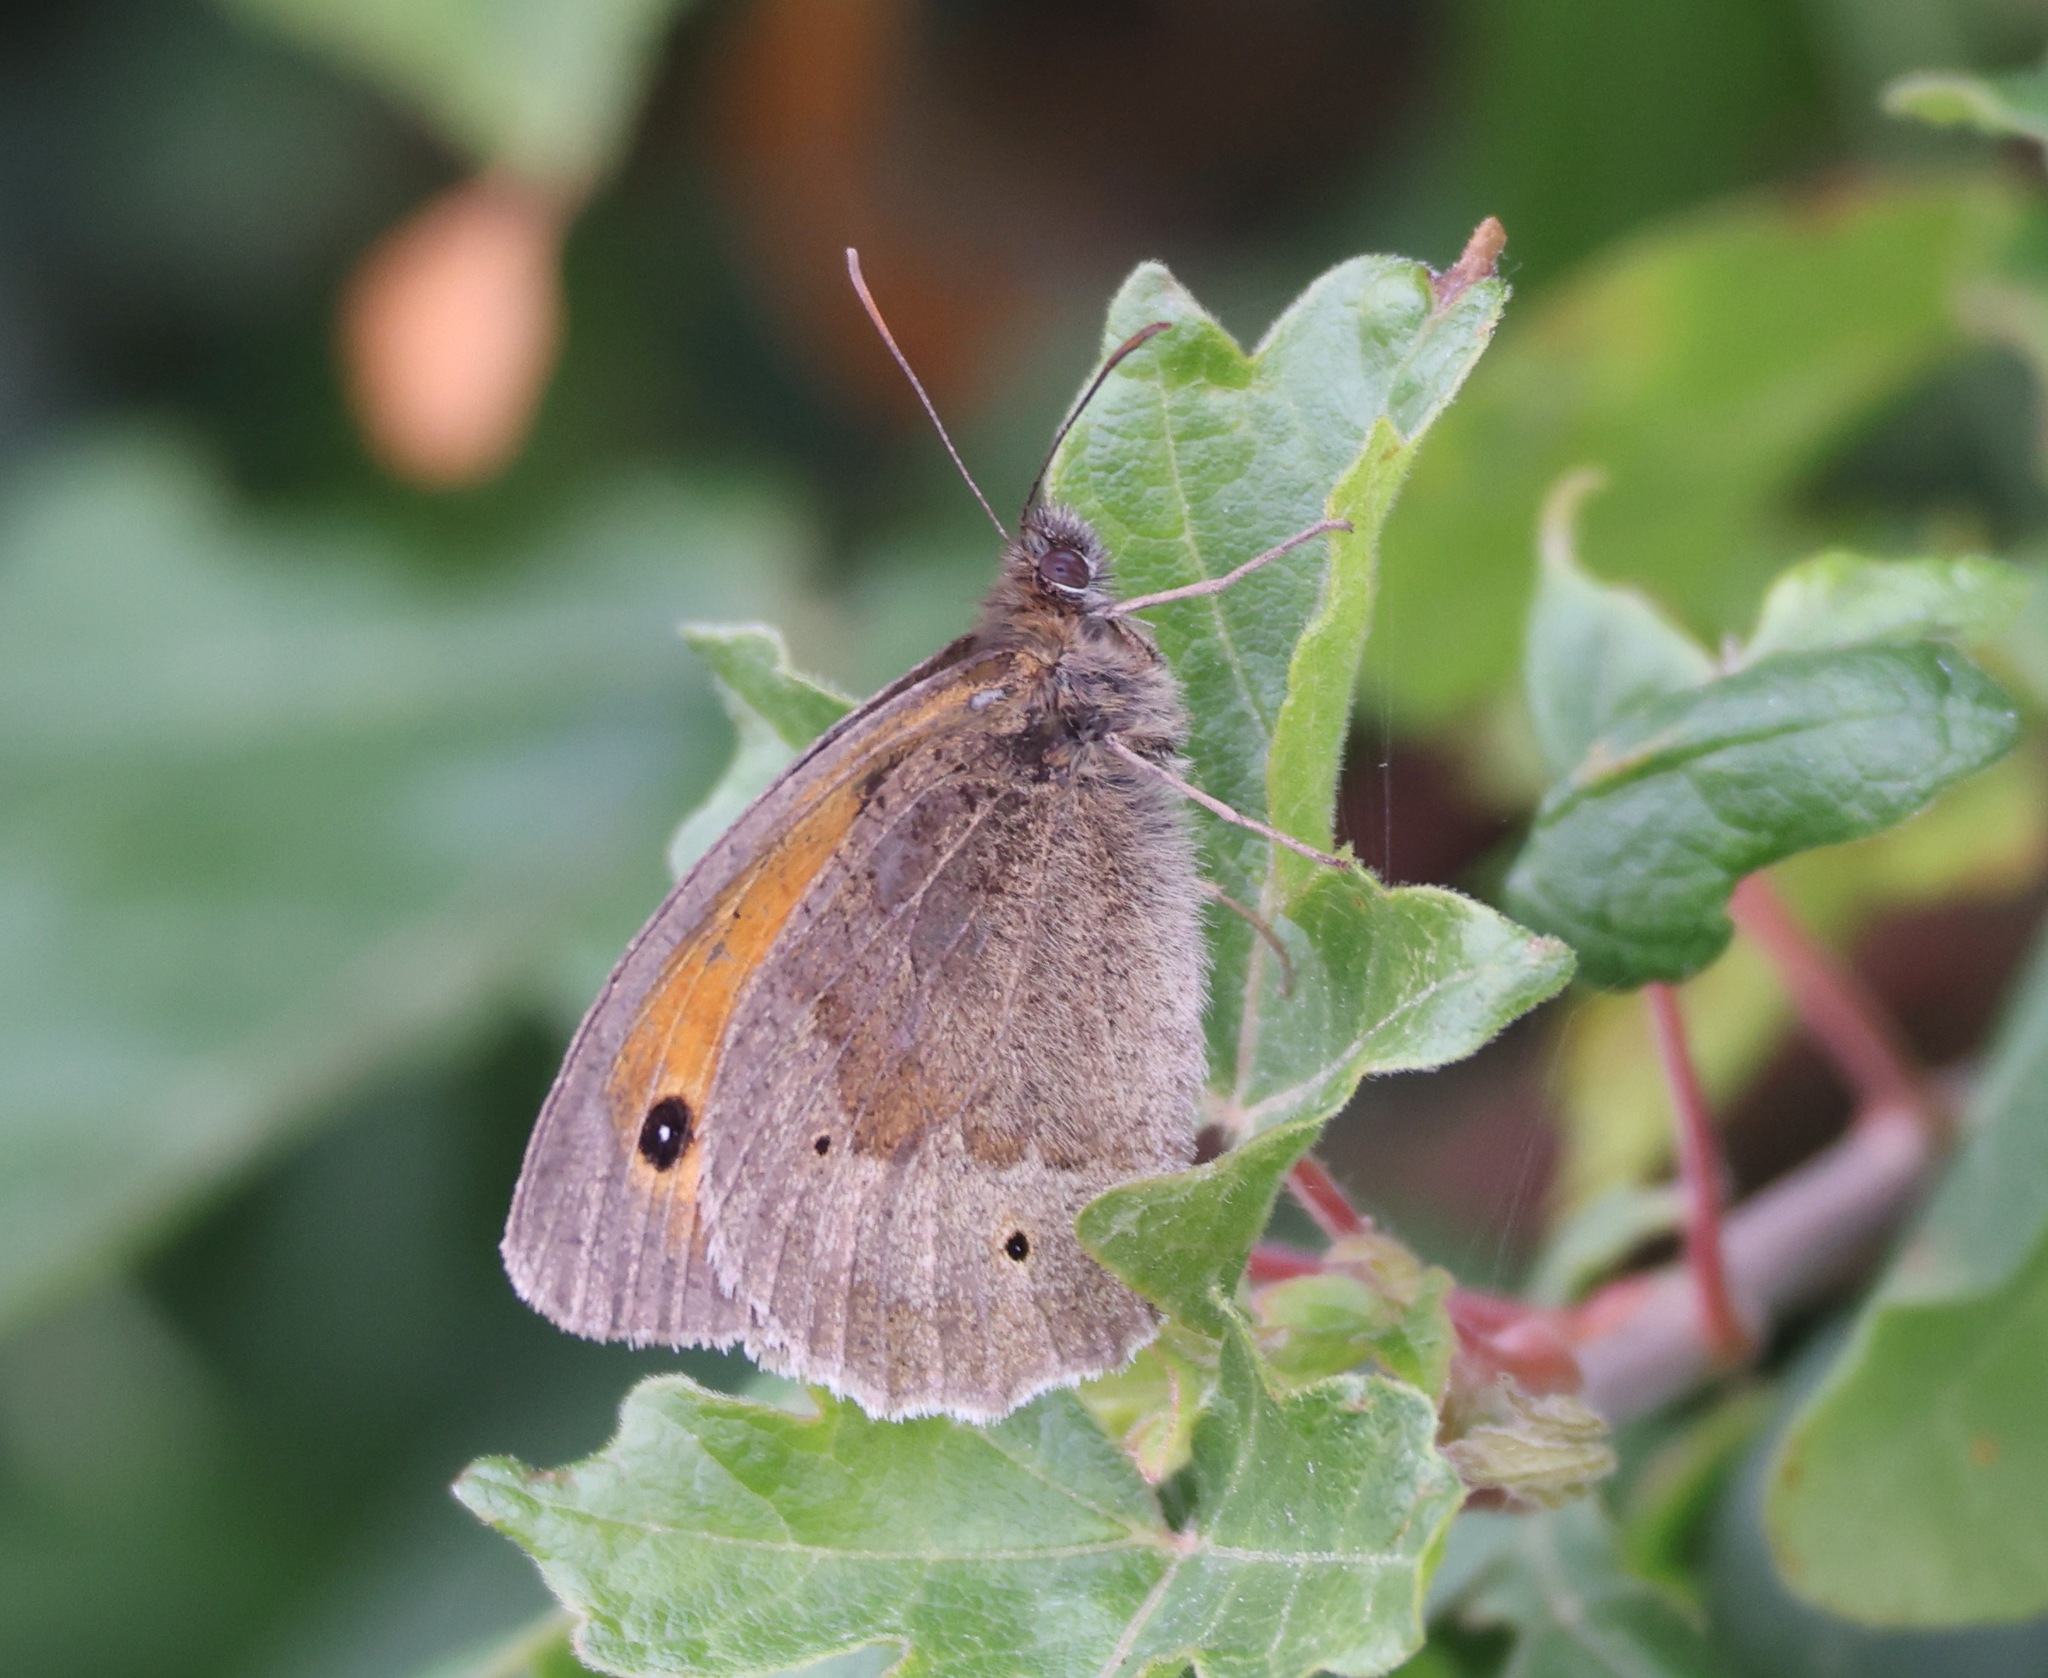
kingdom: Animalia
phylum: Arthropoda
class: Insecta
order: Lepidoptera
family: Nymphalidae
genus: Maniola
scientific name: Maniola jurtina
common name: Meadow brown
